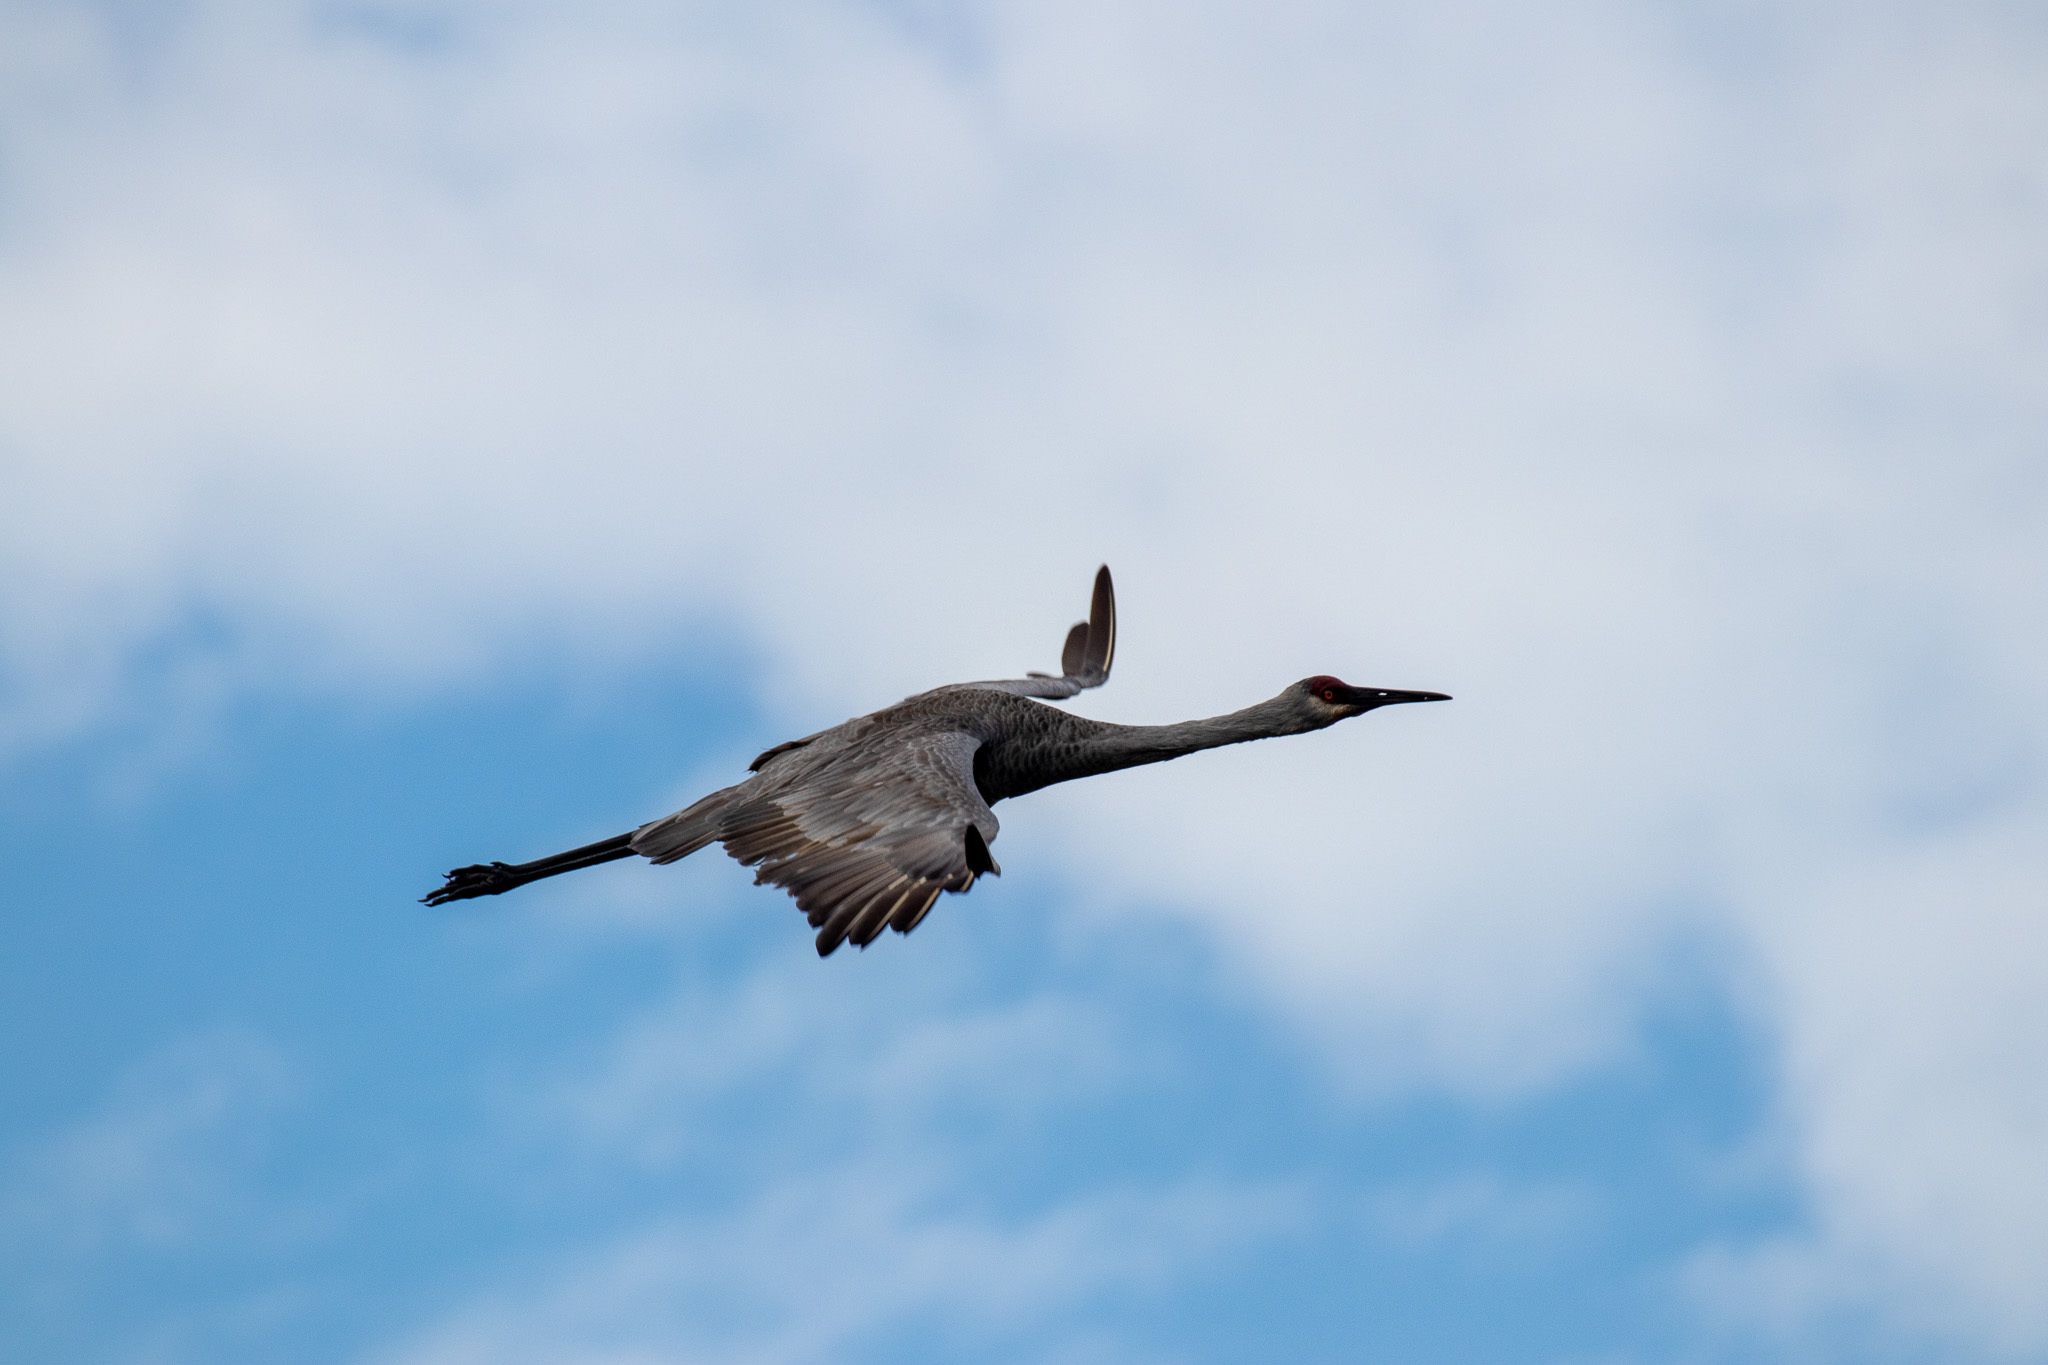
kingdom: Animalia
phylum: Chordata
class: Aves
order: Gruiformes
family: Gruidae
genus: Grus
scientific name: Grus canadensis
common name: Sandhill crane
